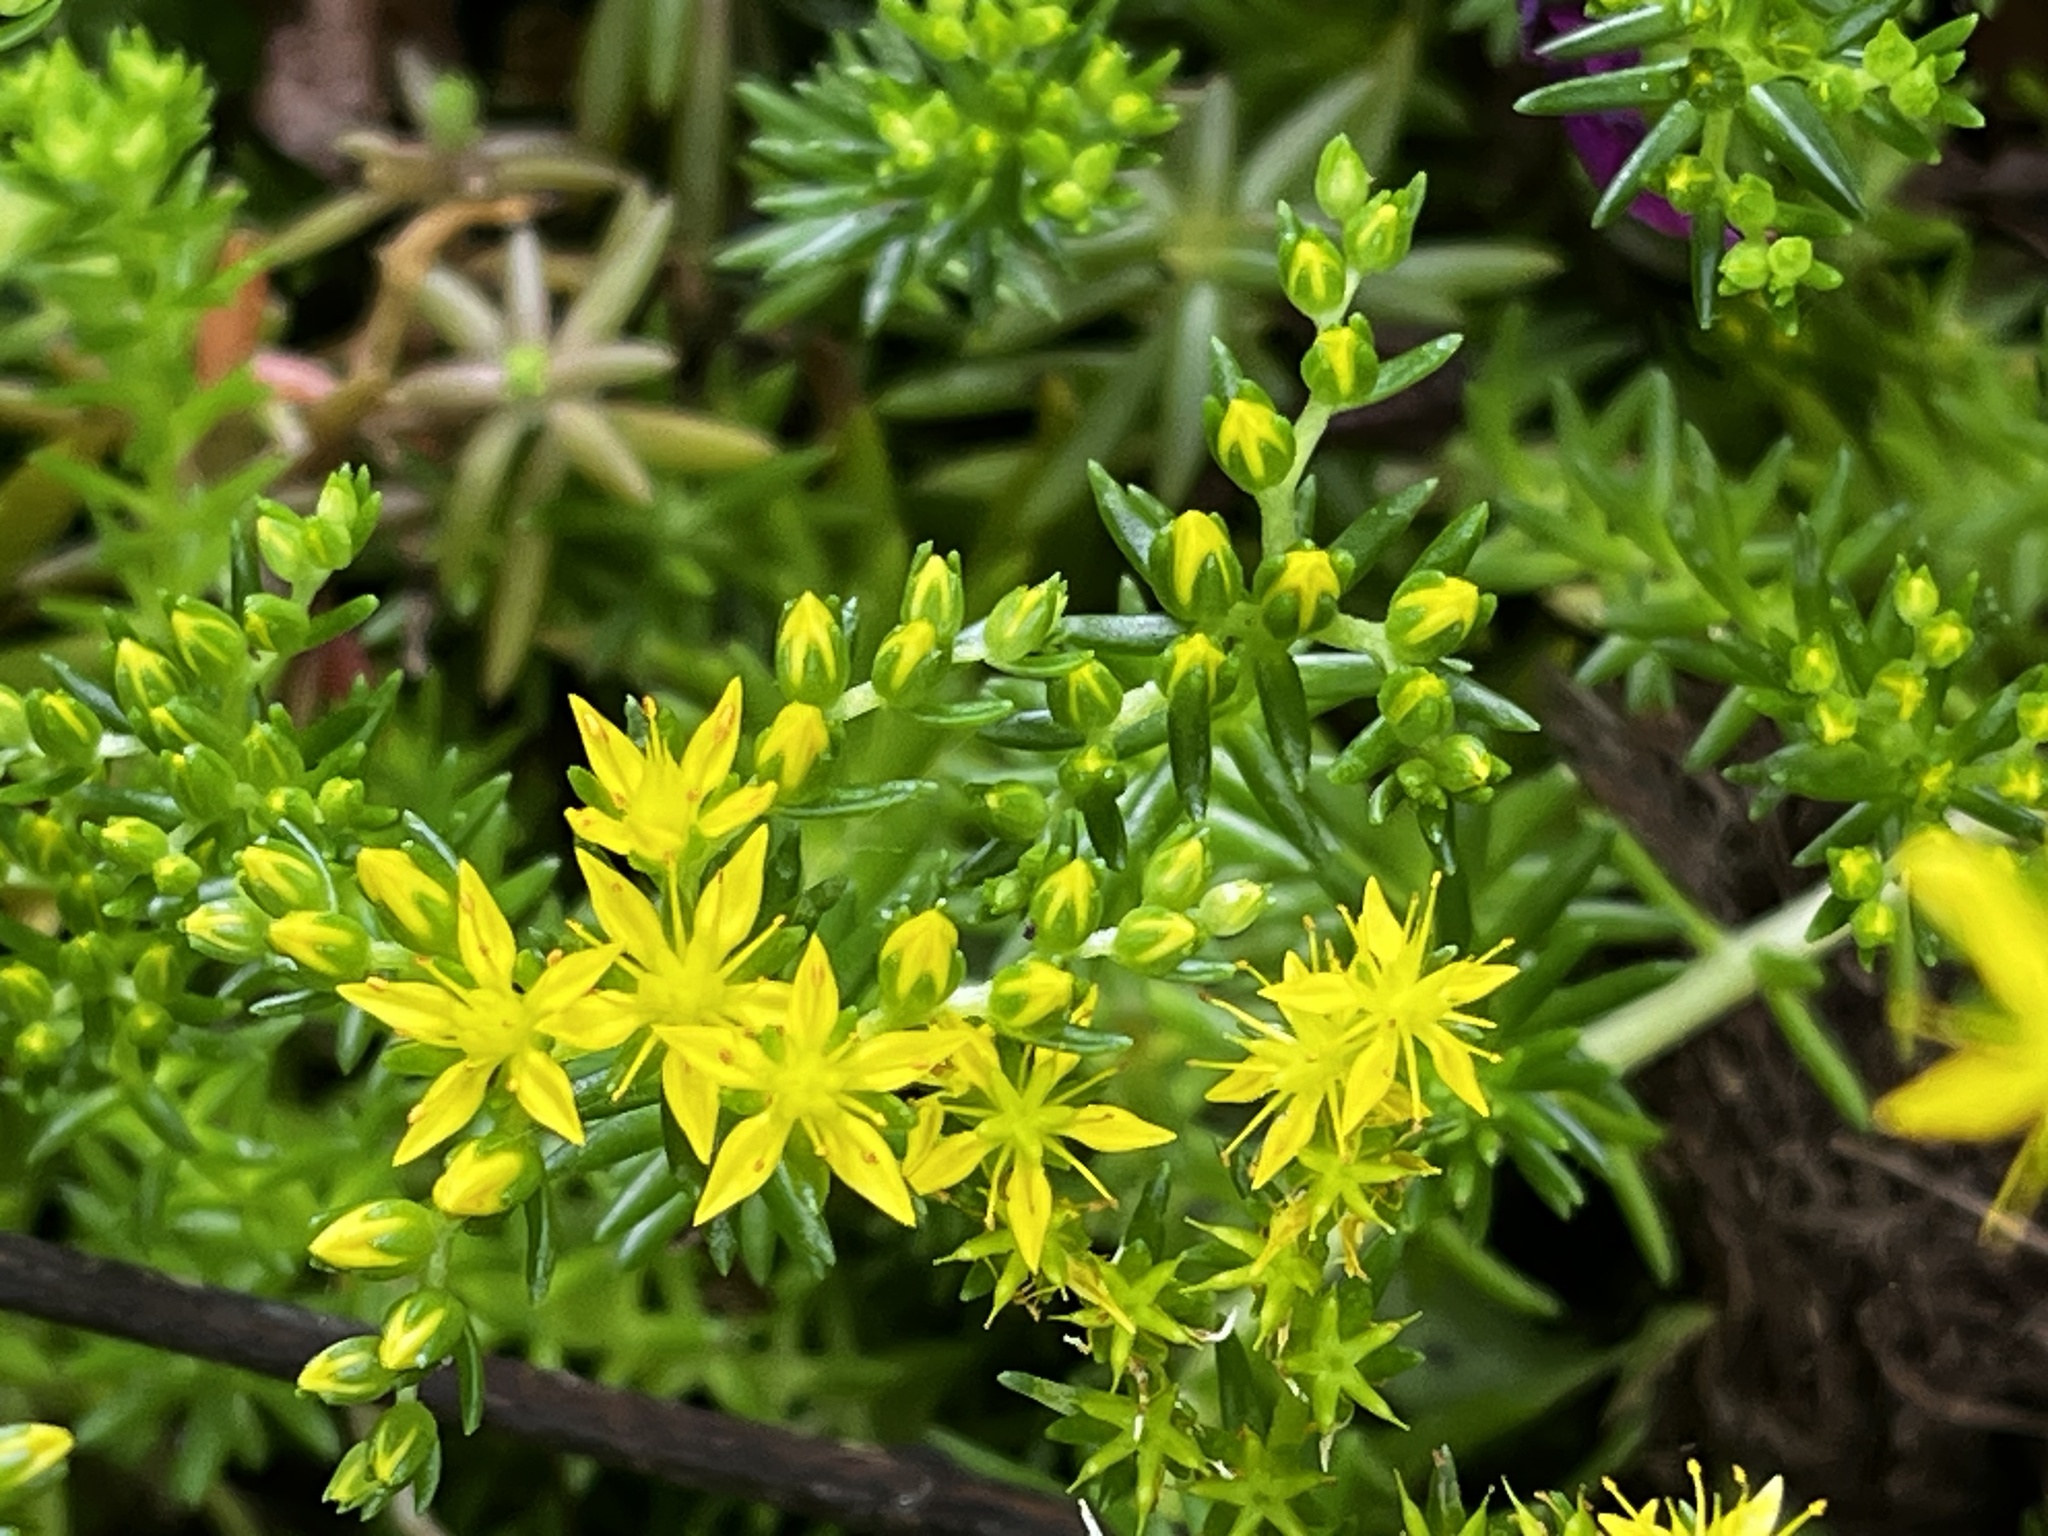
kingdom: Plantae
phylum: Tracheophyta
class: Magnoliopsida
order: Saxifragales
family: Crassulaceae
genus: Sedum
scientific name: Sedum mexicanum
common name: Mexican stonecrop
